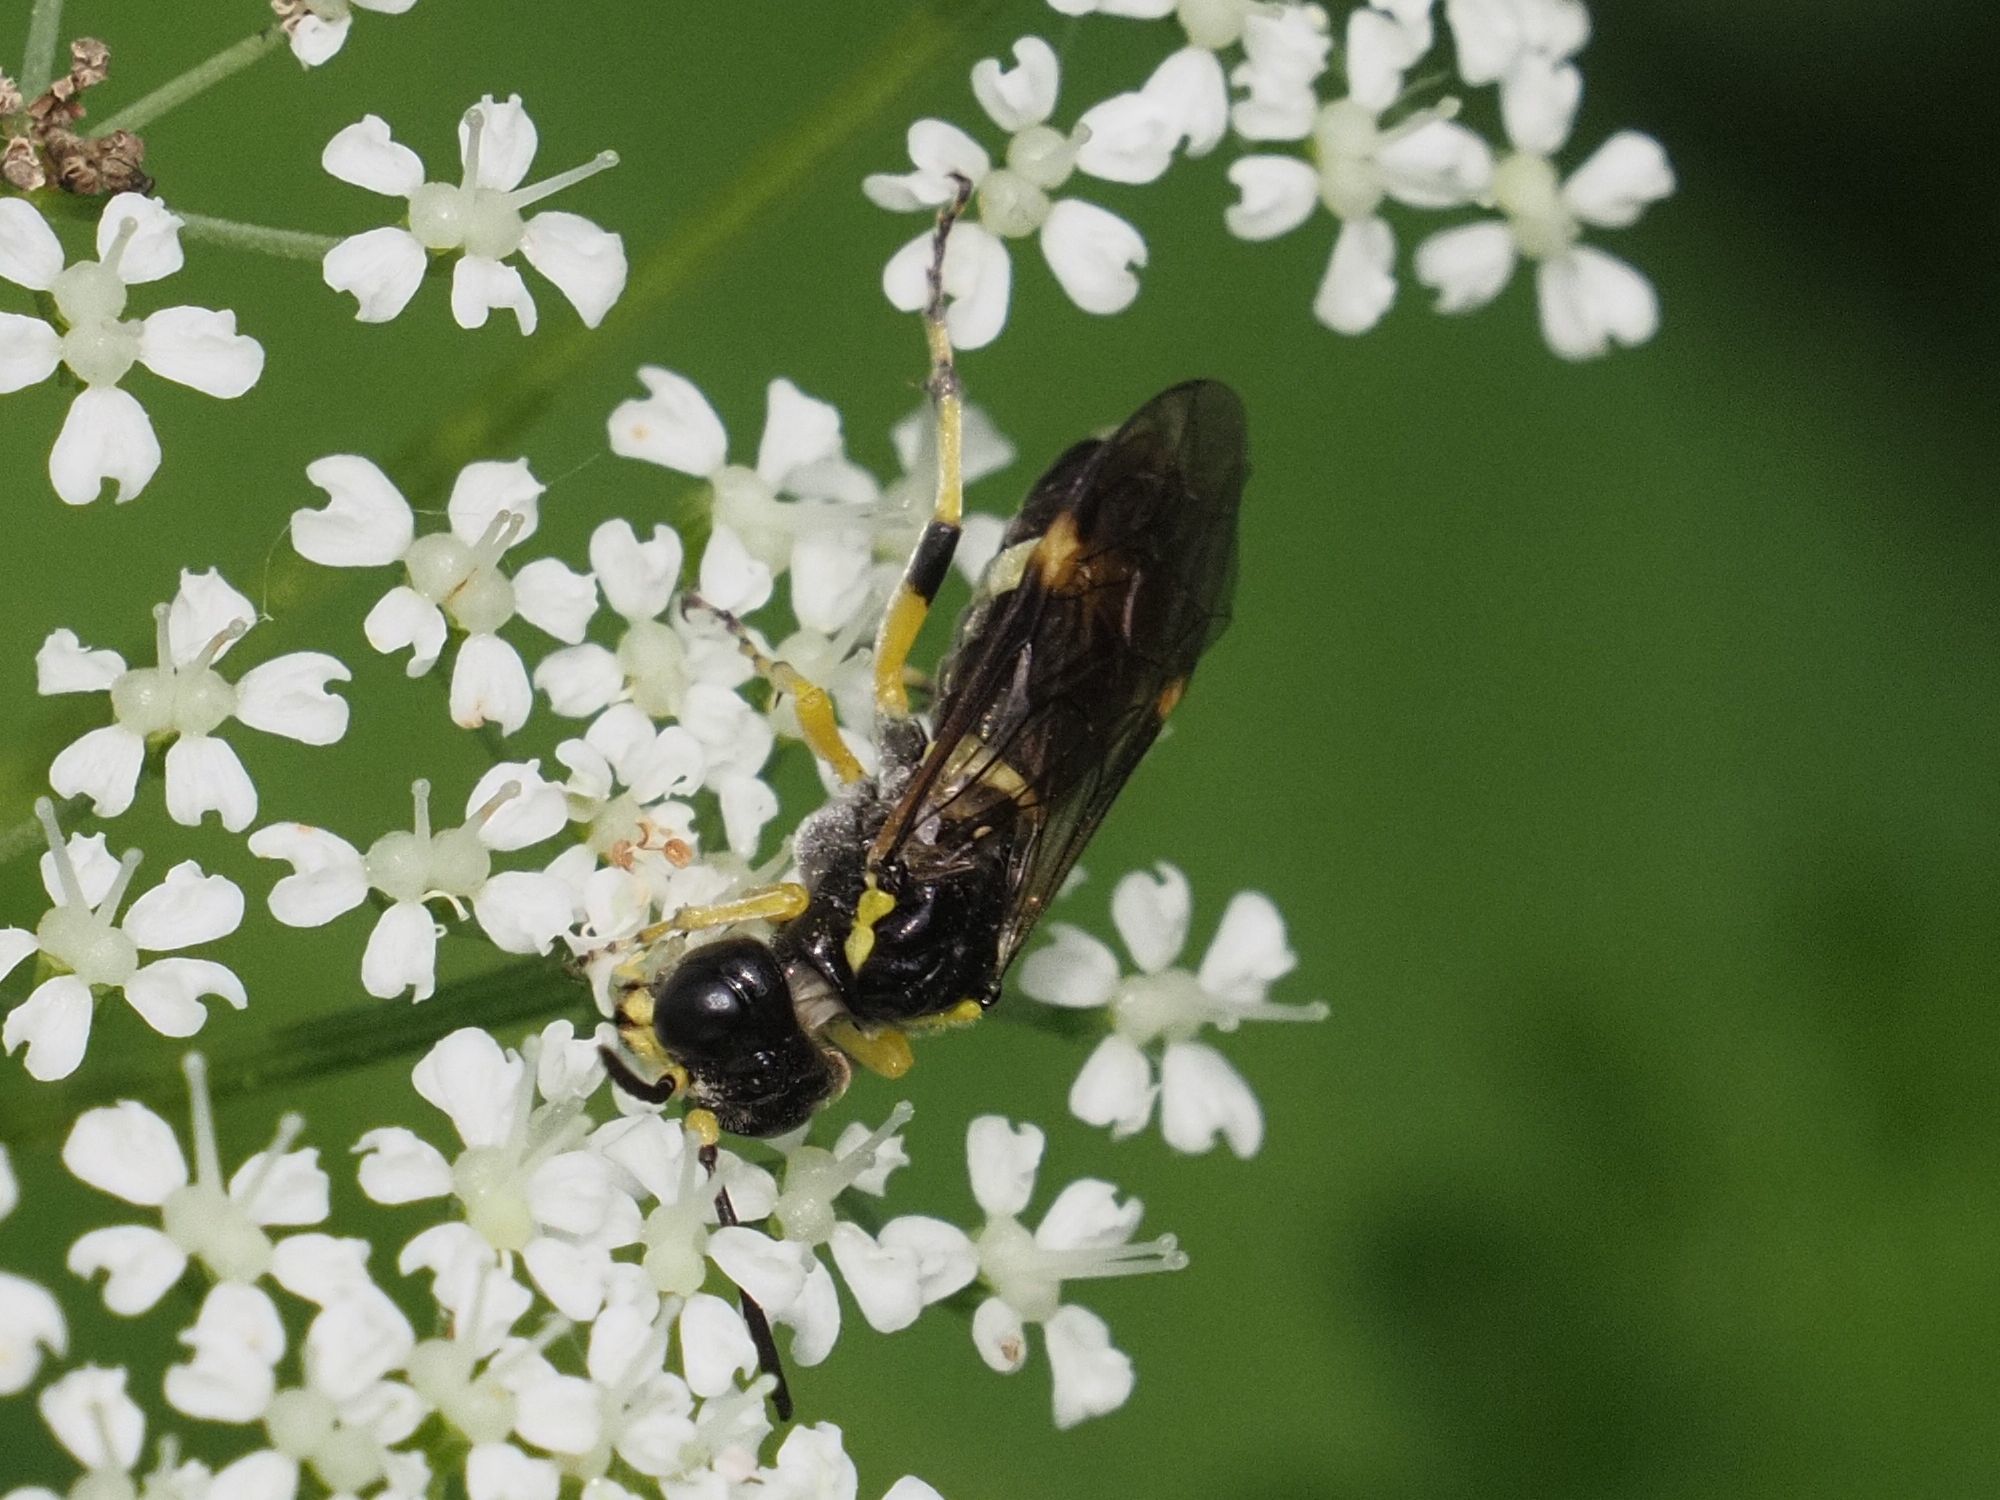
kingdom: Animalia
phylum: Arthropoda
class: Insecta
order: Hymenoptera
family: Tenthredinidae
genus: Tenthredo
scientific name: Tenthredo zonula
